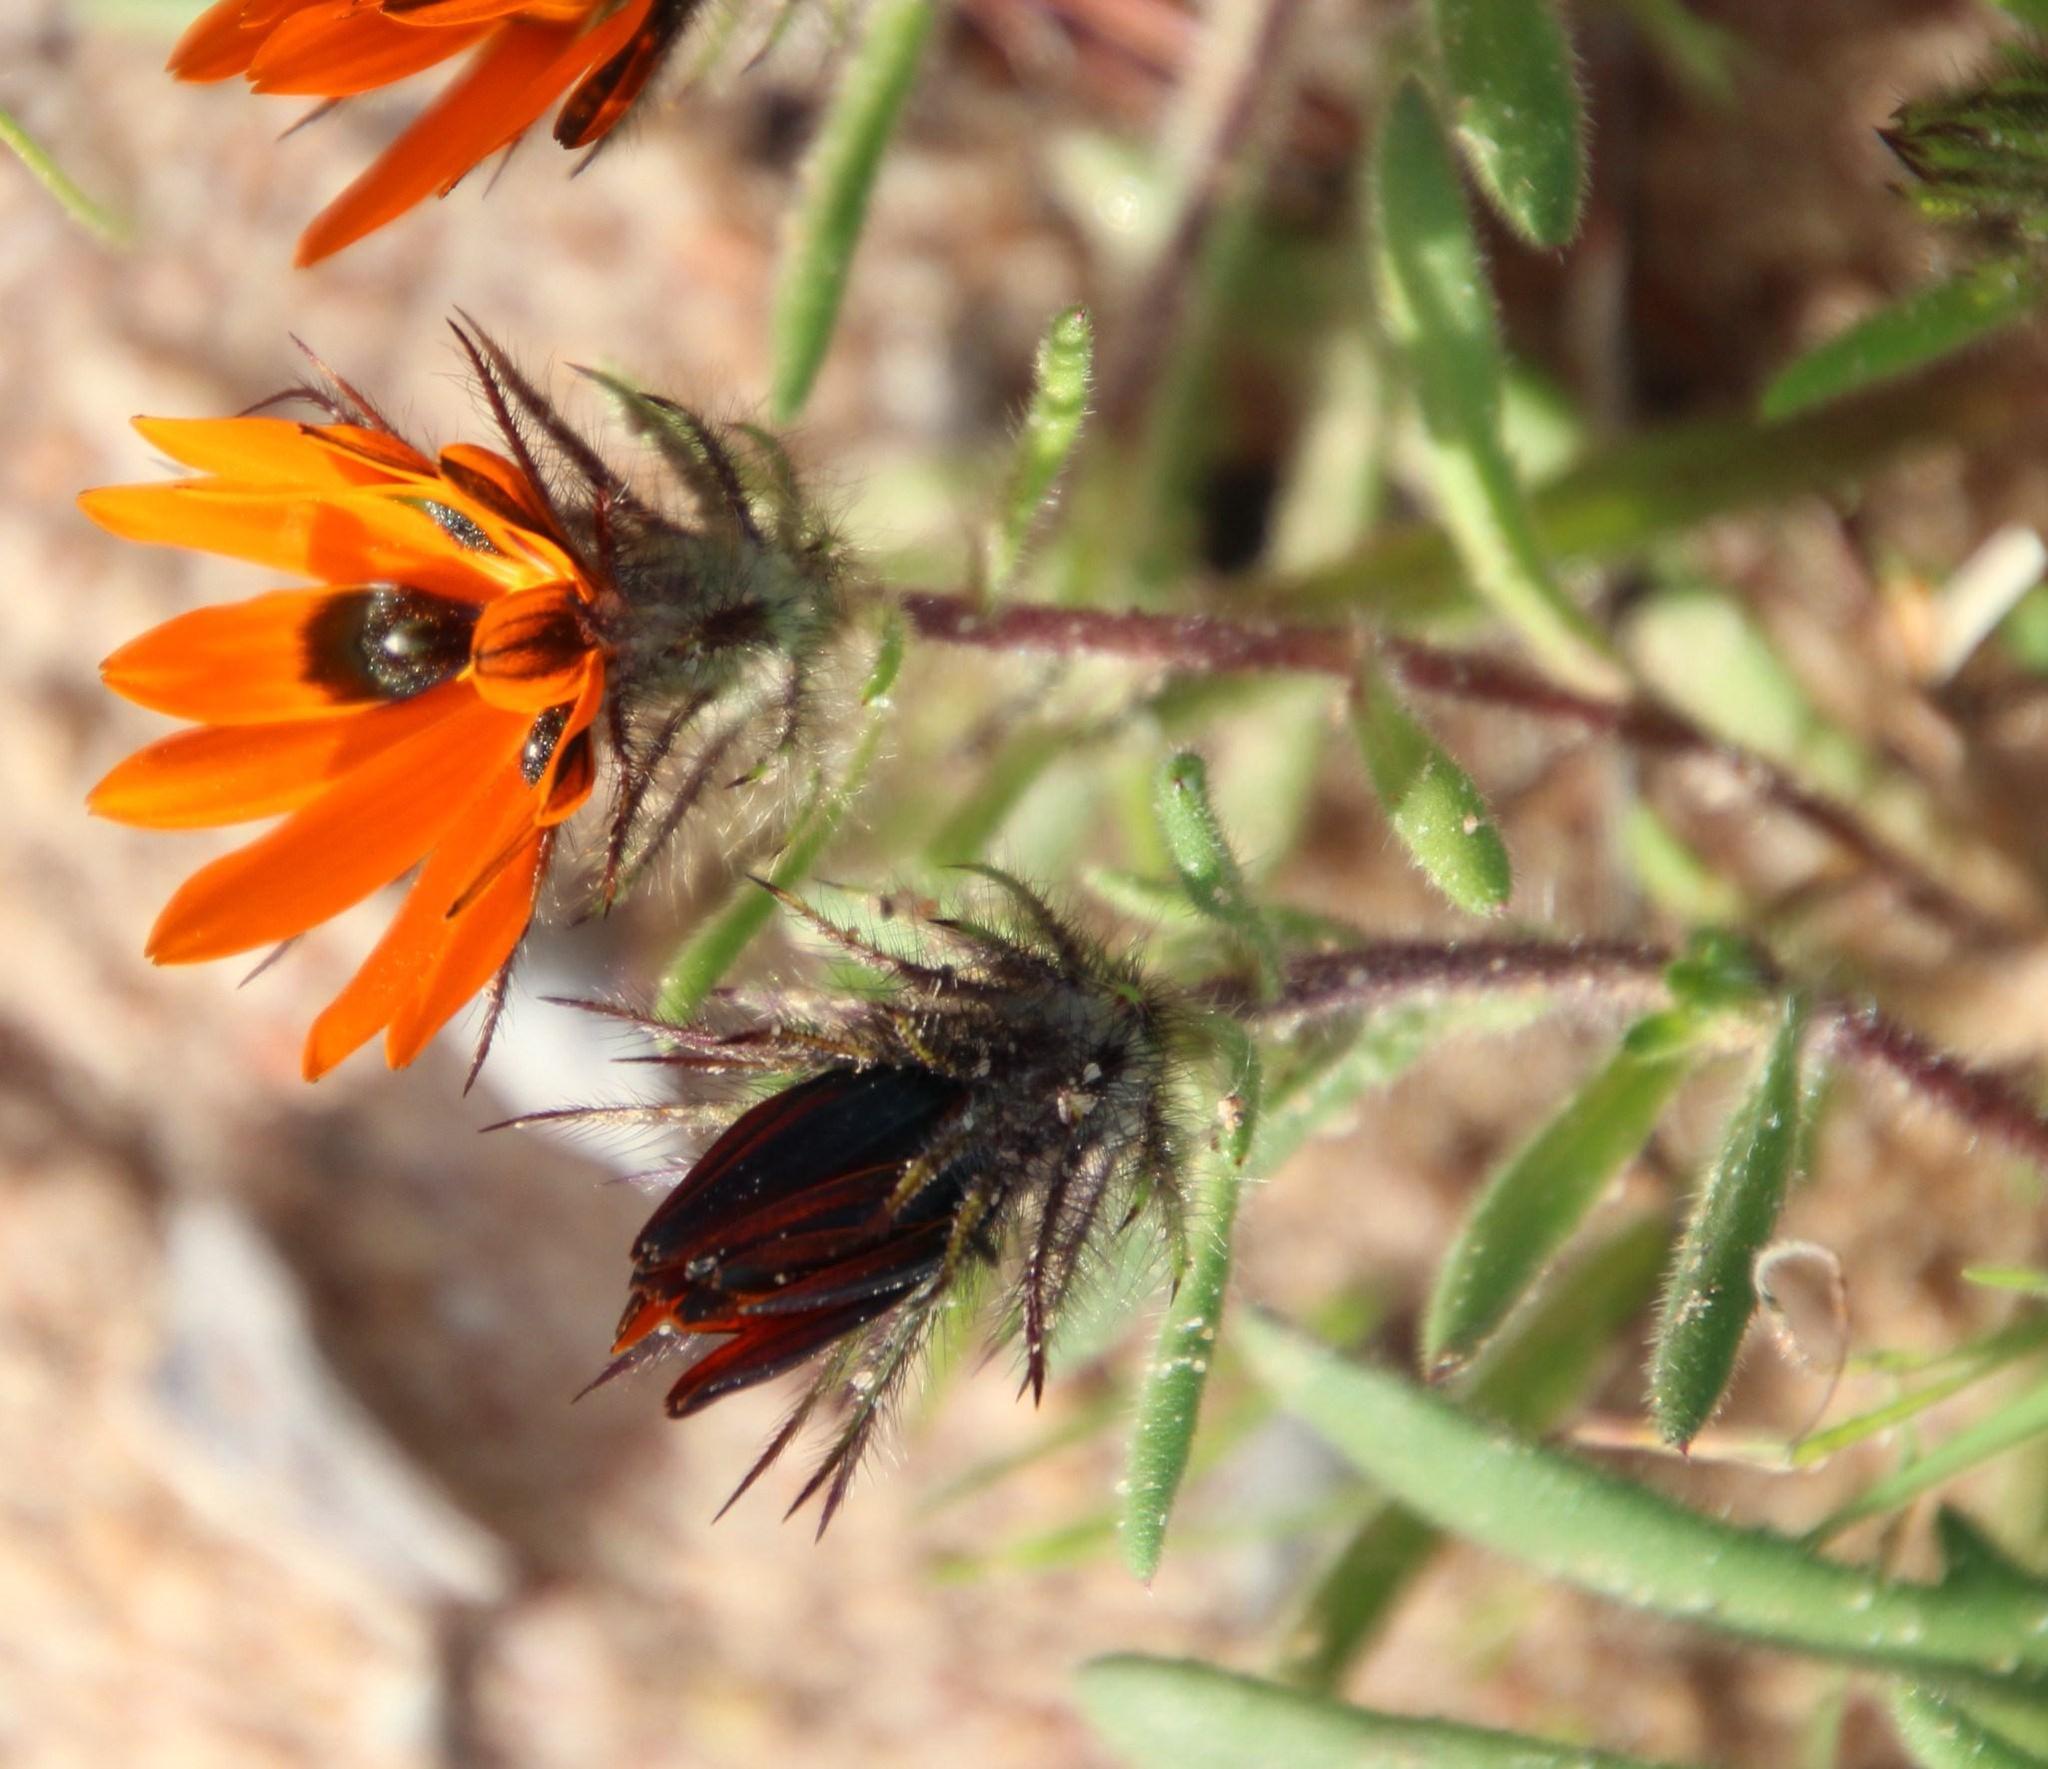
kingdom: Plantae
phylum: Tracheophyta
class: Magnoliopsida
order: Asterales
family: Asteraceae
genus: Gorteria
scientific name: Gorteria diffusa
